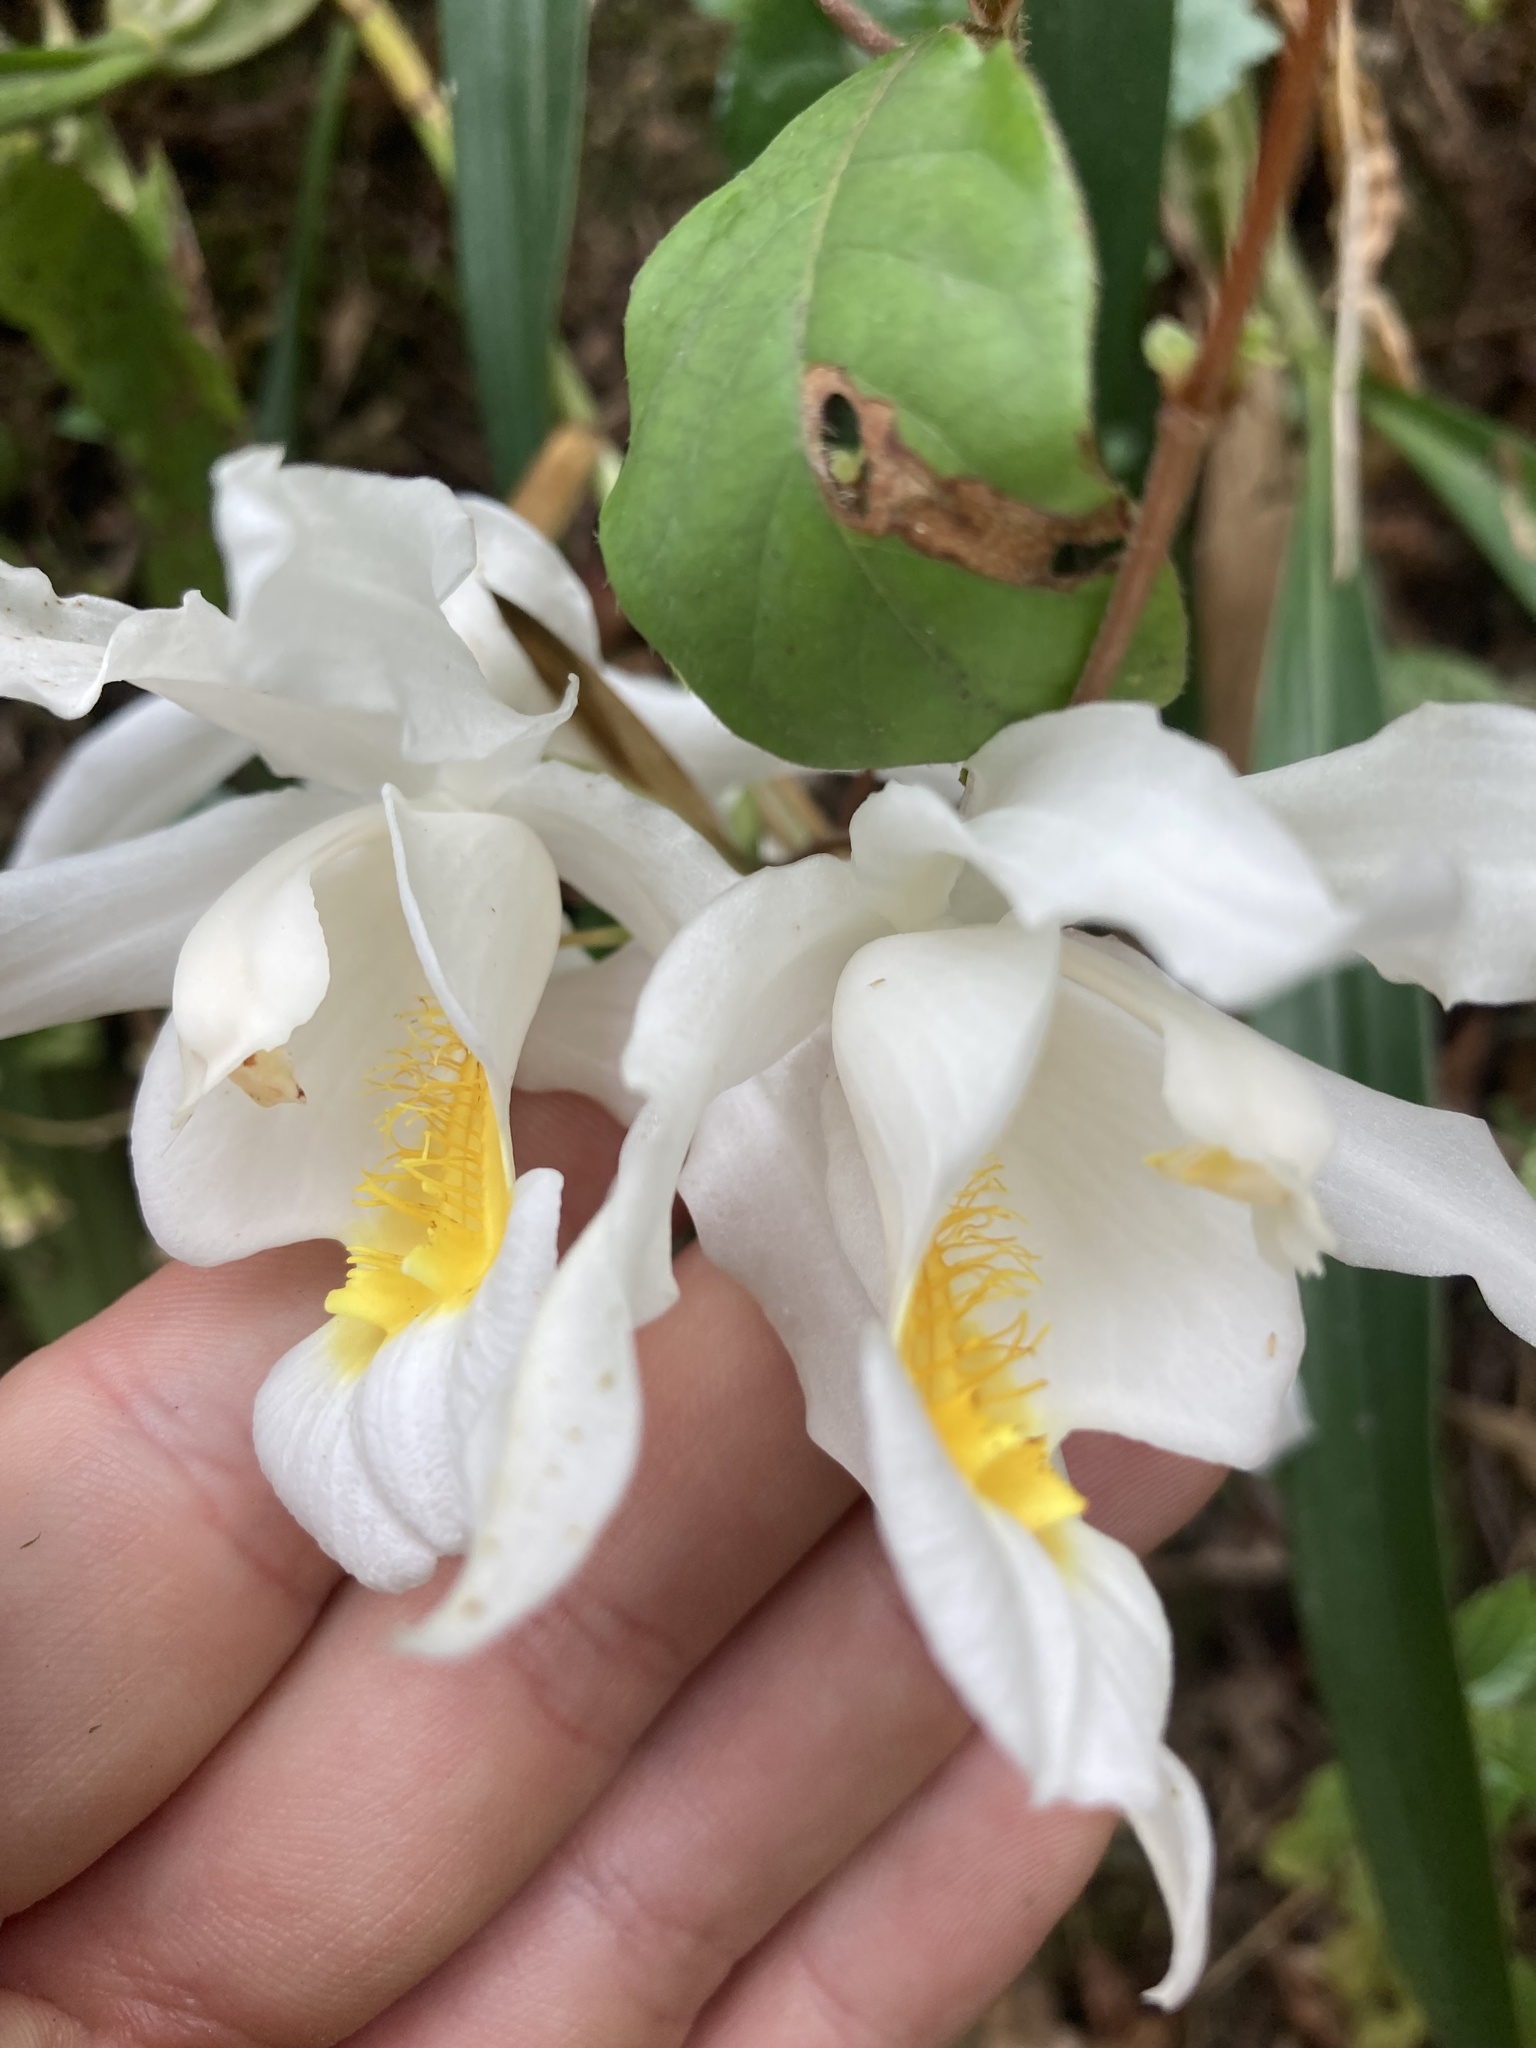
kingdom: Plantae
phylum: Tracheophyta
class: Liliopsida
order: Asparagales
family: Orchidaceae
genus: Coelogyne
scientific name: Coelogyne cristata
